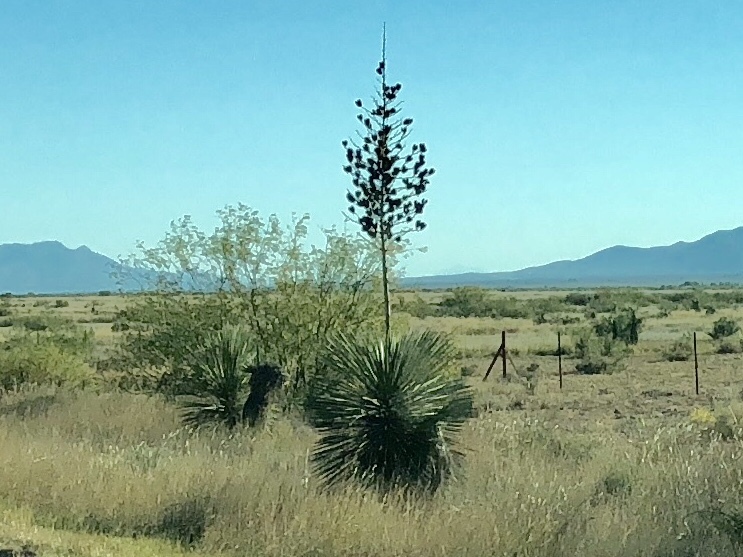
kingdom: Plantae
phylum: Tracheophyta
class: Liliopsida
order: Asparagales
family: Asparagaceae
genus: Yucca
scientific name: Yucca elata
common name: Palmella
